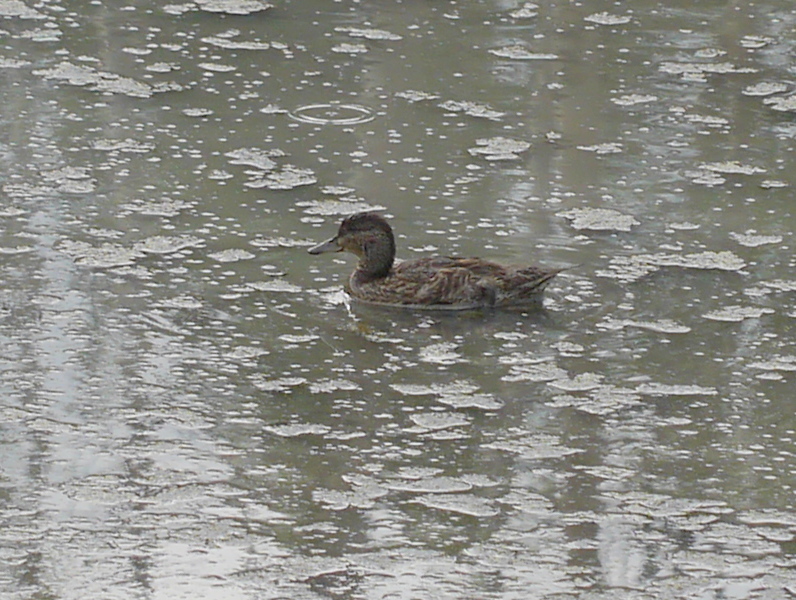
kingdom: Animalia
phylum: Chordata
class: Aves
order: Anseriformes
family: Anatidae
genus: Anas
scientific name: Anas crecca
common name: Eurasian teal
